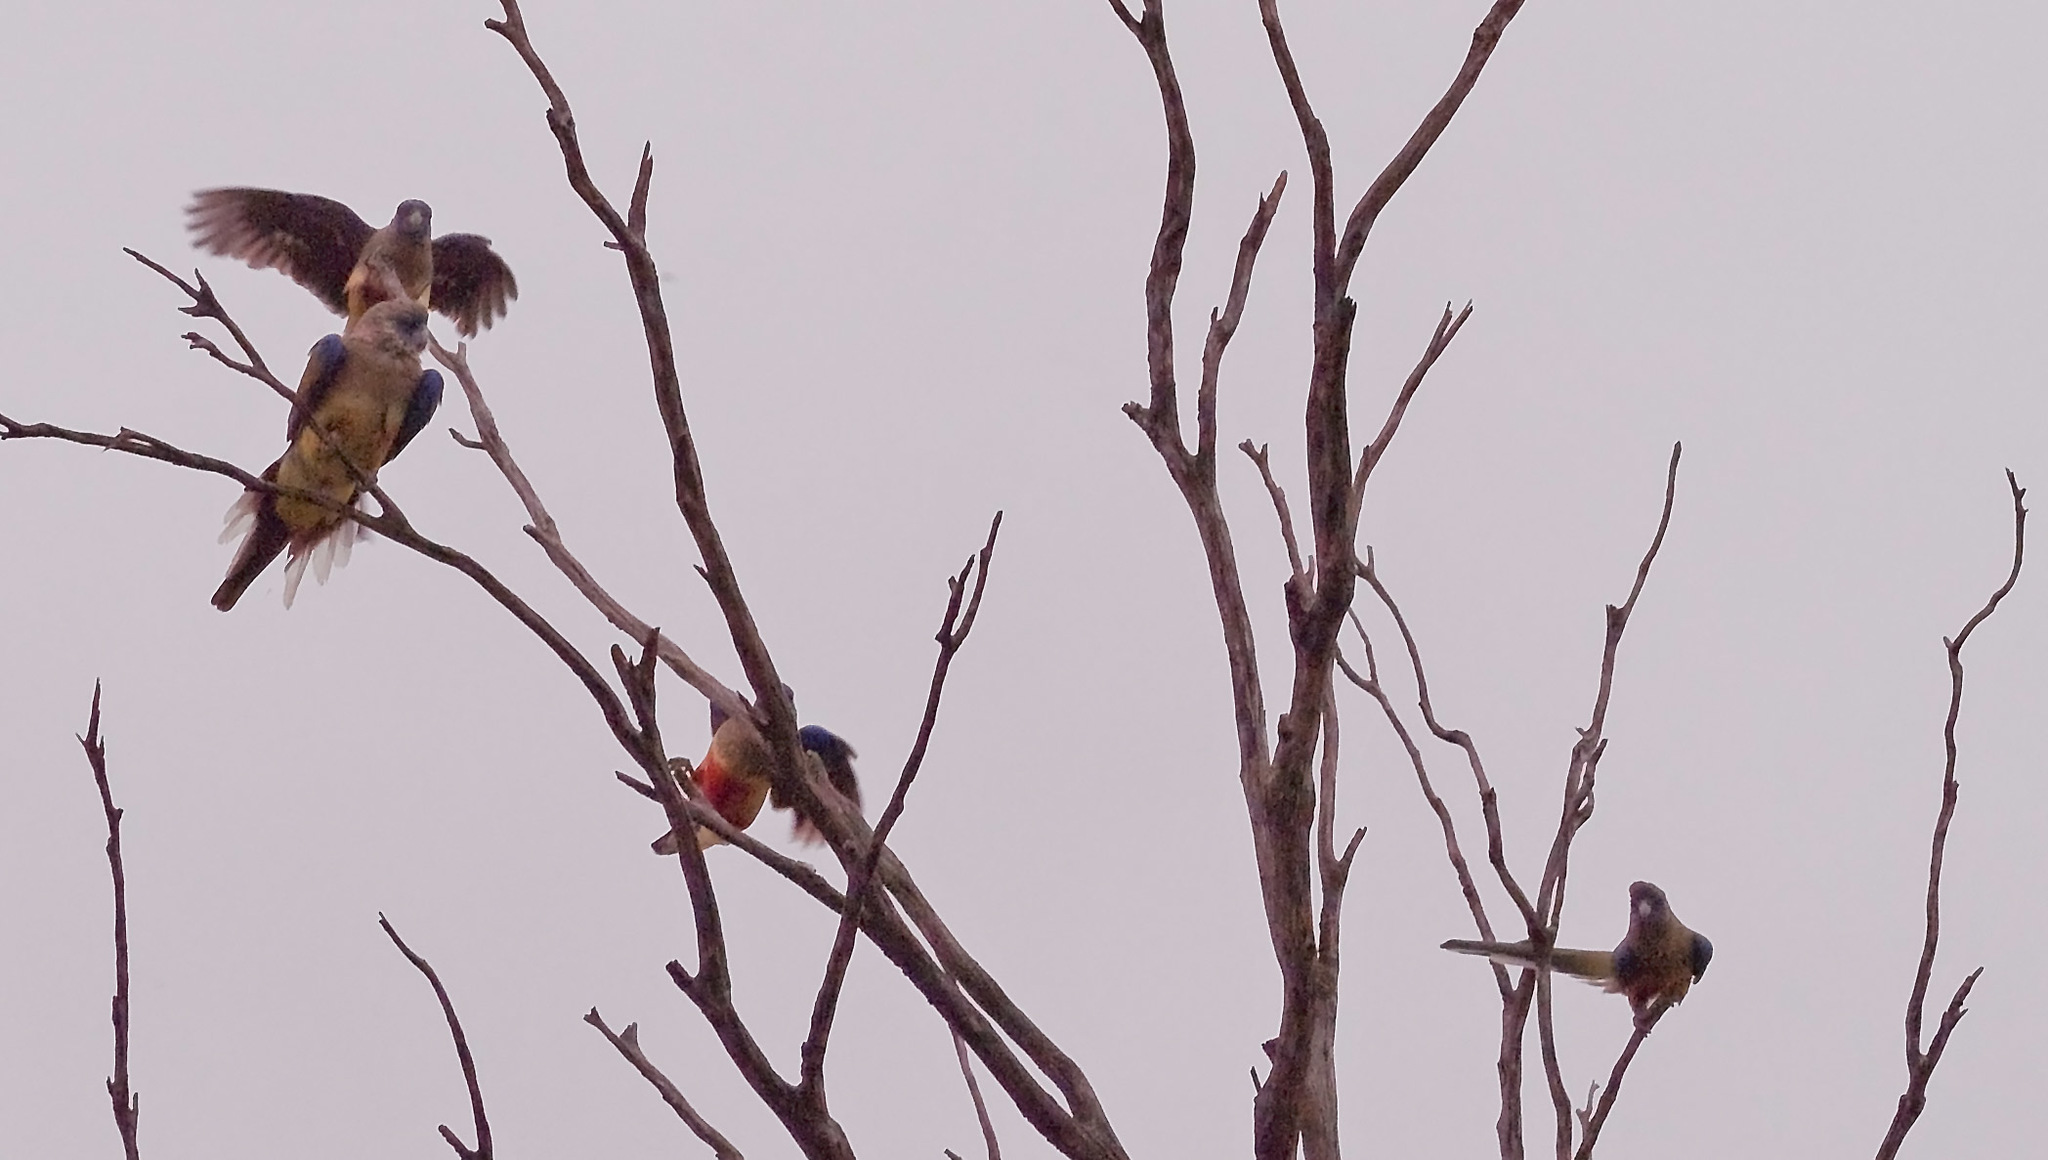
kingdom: Animalia
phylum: Chordata
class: Aves
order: Psittaciformes
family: Psittacidae
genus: Northiella
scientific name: Northiella haematogaster
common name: Bluebonnet
